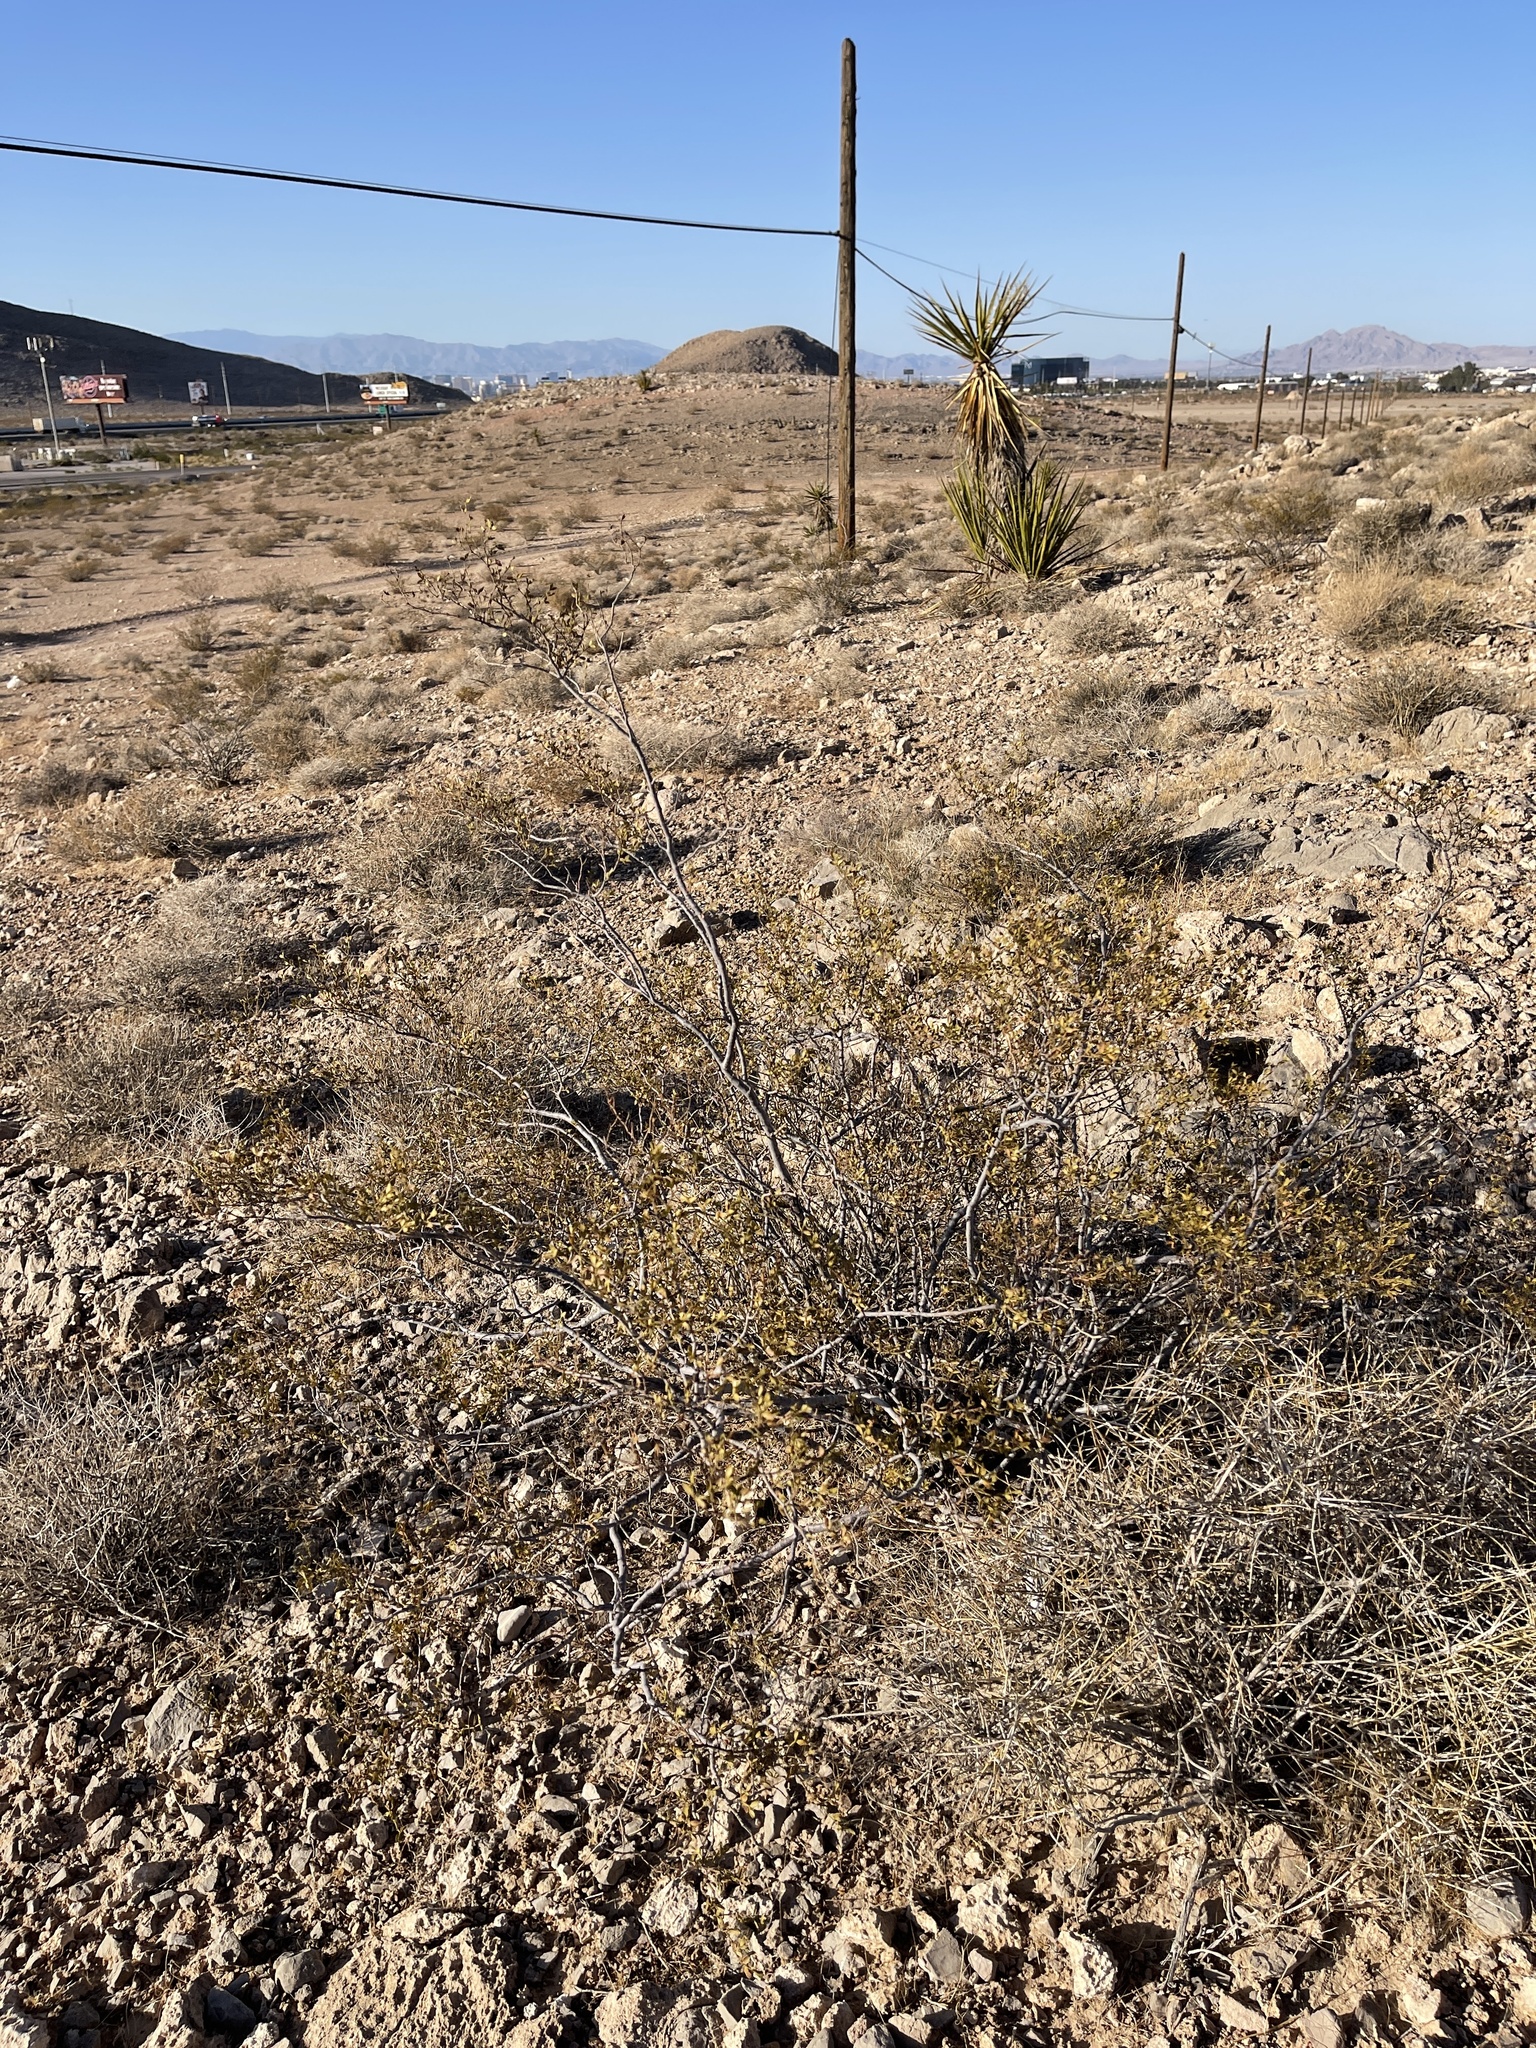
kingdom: Plantae
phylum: Tracheophyta
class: Magnoliopsida
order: Zygophyllales
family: Zygophyllaceae
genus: Larrea
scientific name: Larrea tridentata
